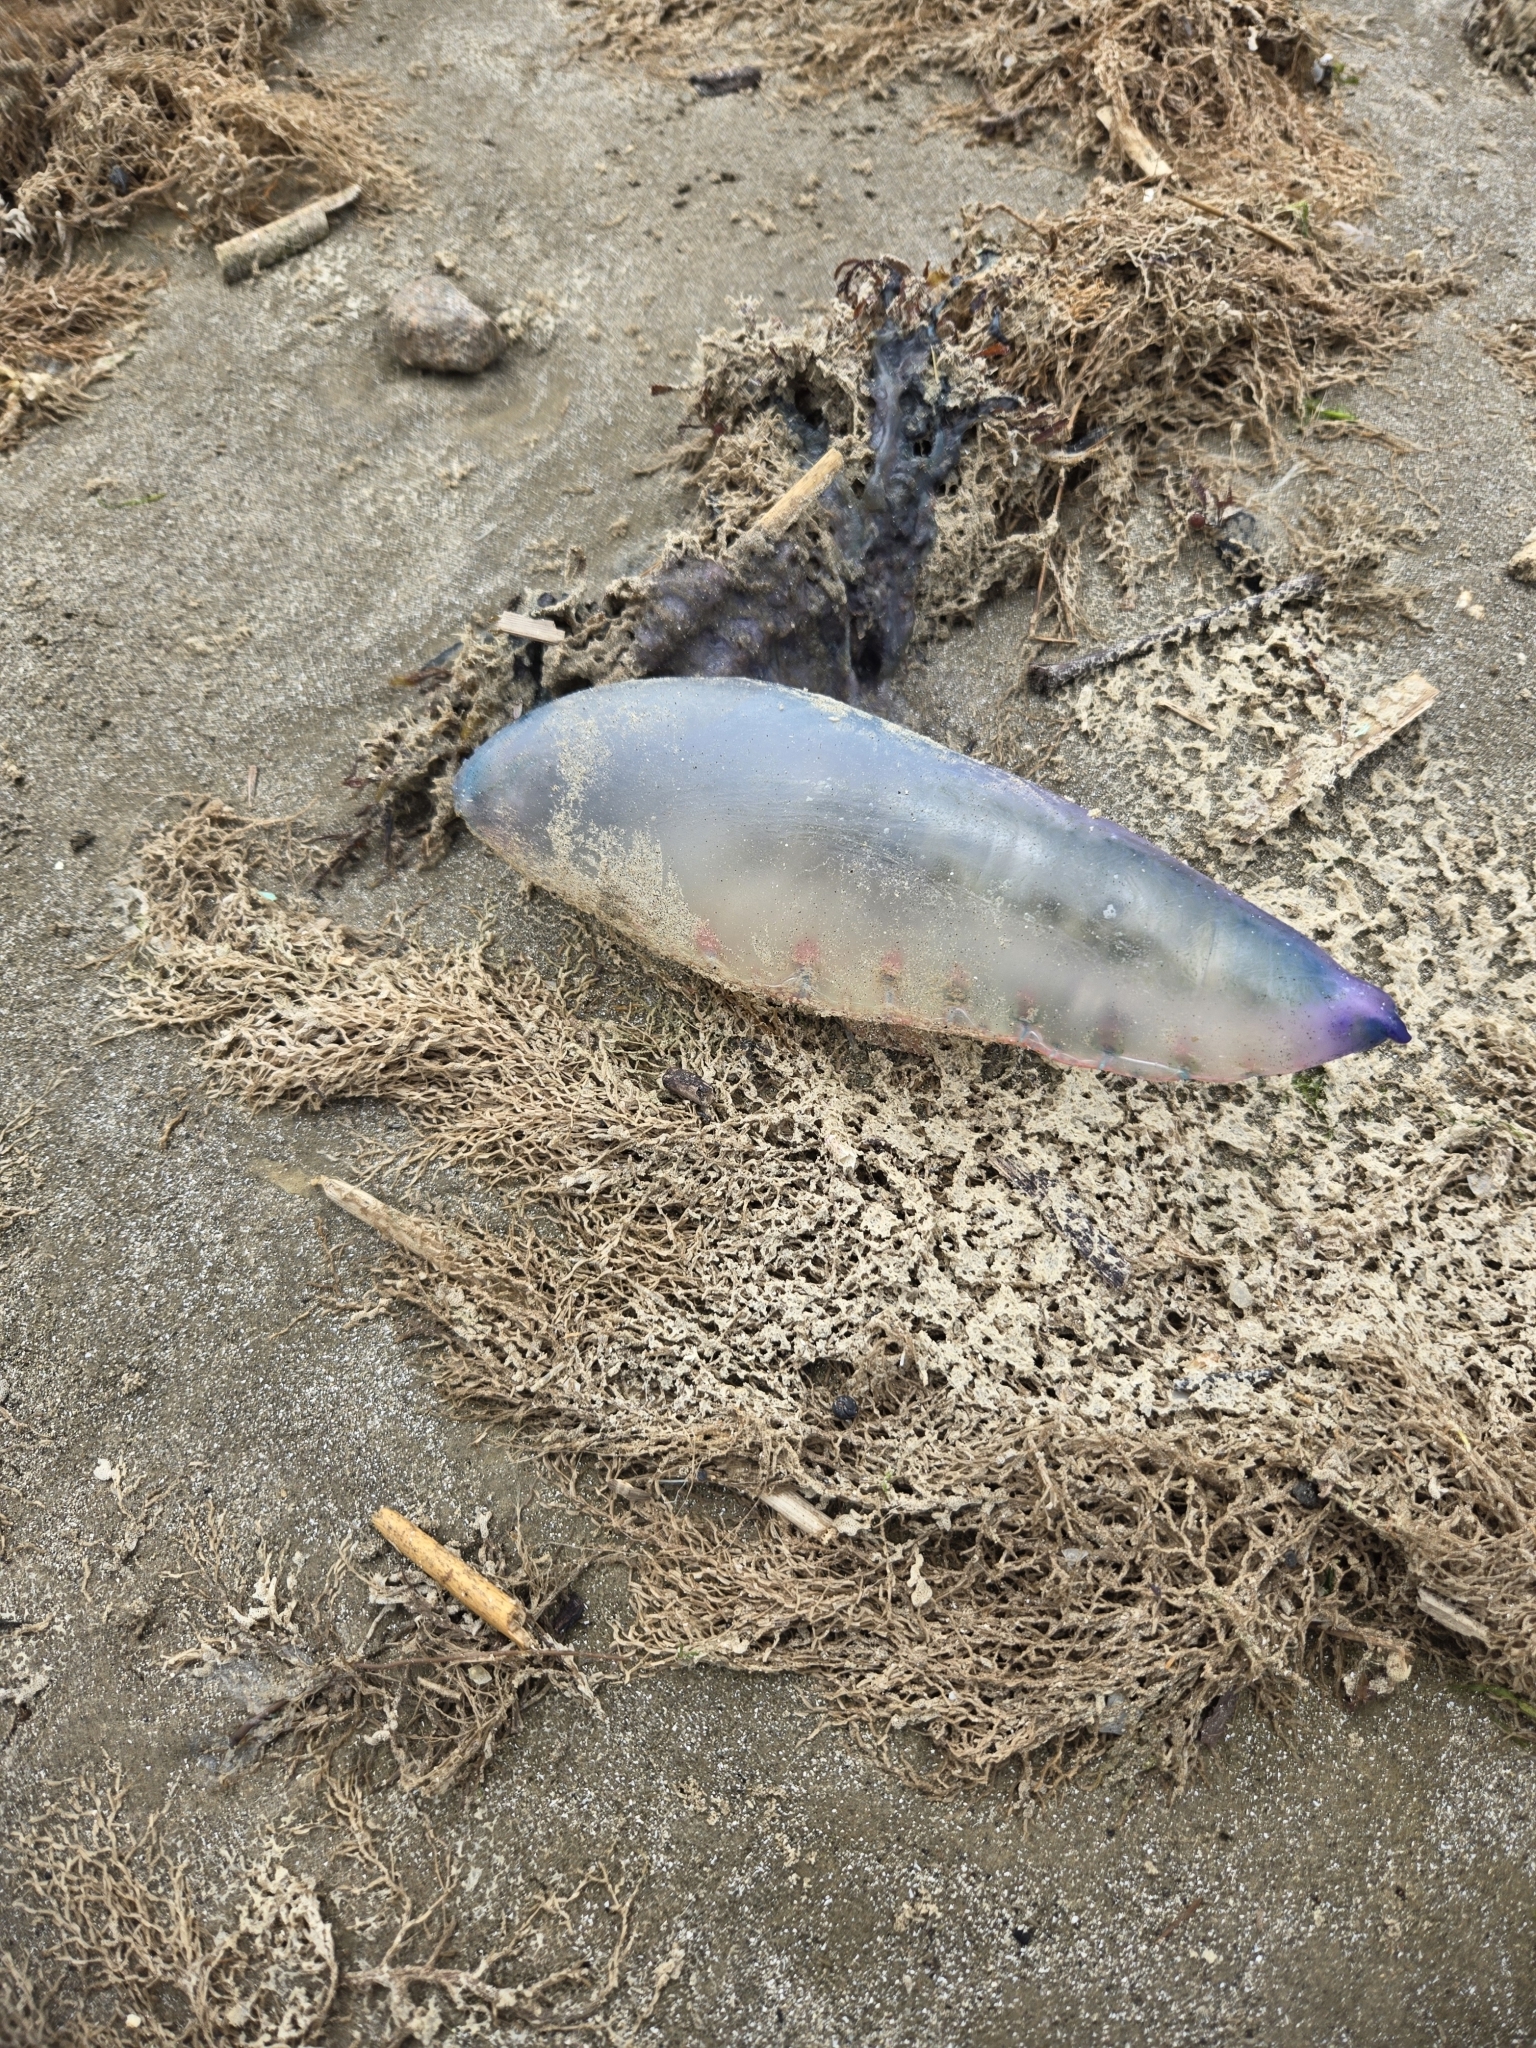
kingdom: Animalia
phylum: Cnidaria
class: Hydrozoa
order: Siphonophorae
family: Physaliidae
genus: Physalia
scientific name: Physalia physalis
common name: Portuguese man-of-war
